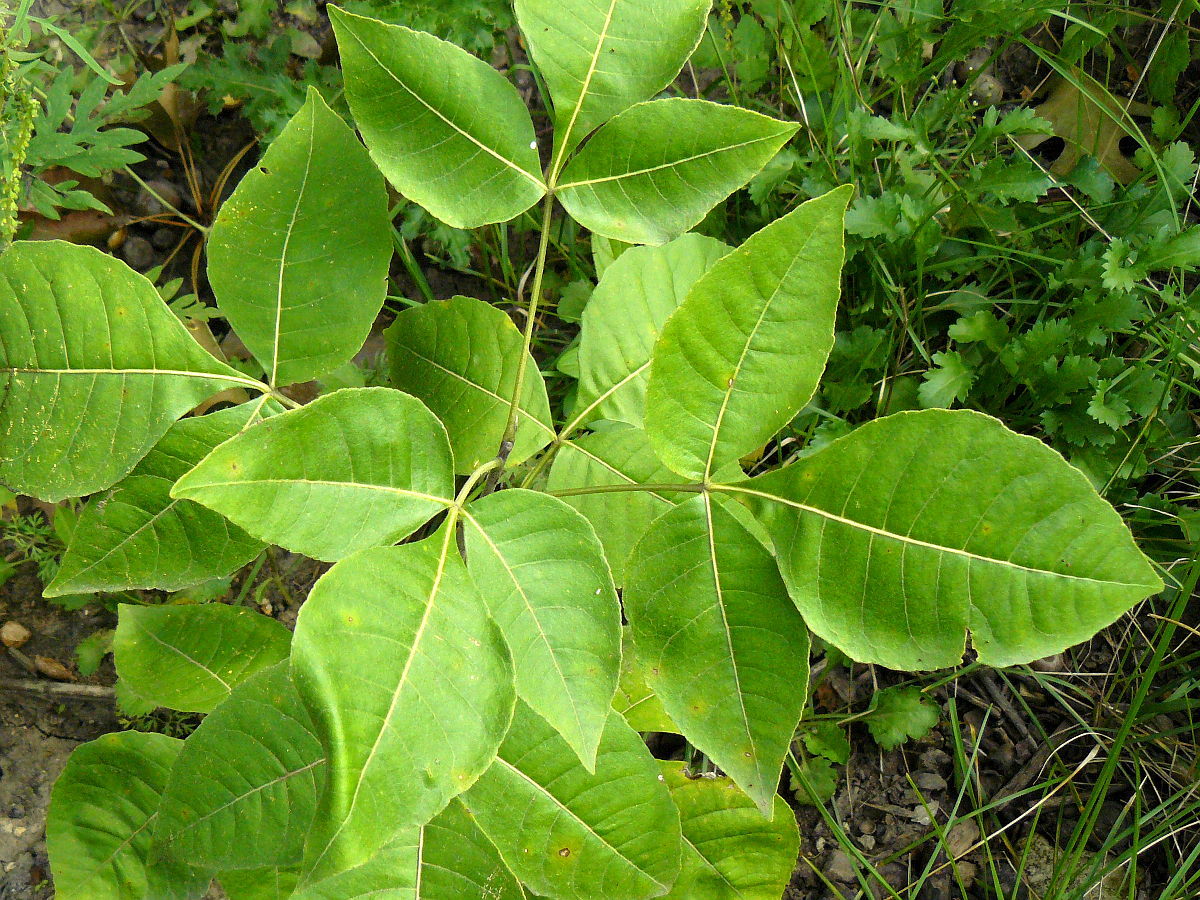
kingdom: Plantae
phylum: Tracheophyta
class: Magnoliopsida
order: Sapindales
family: Rutaceae
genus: Ptelea
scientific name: Ptelea trifoliata
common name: Common hop-tree
